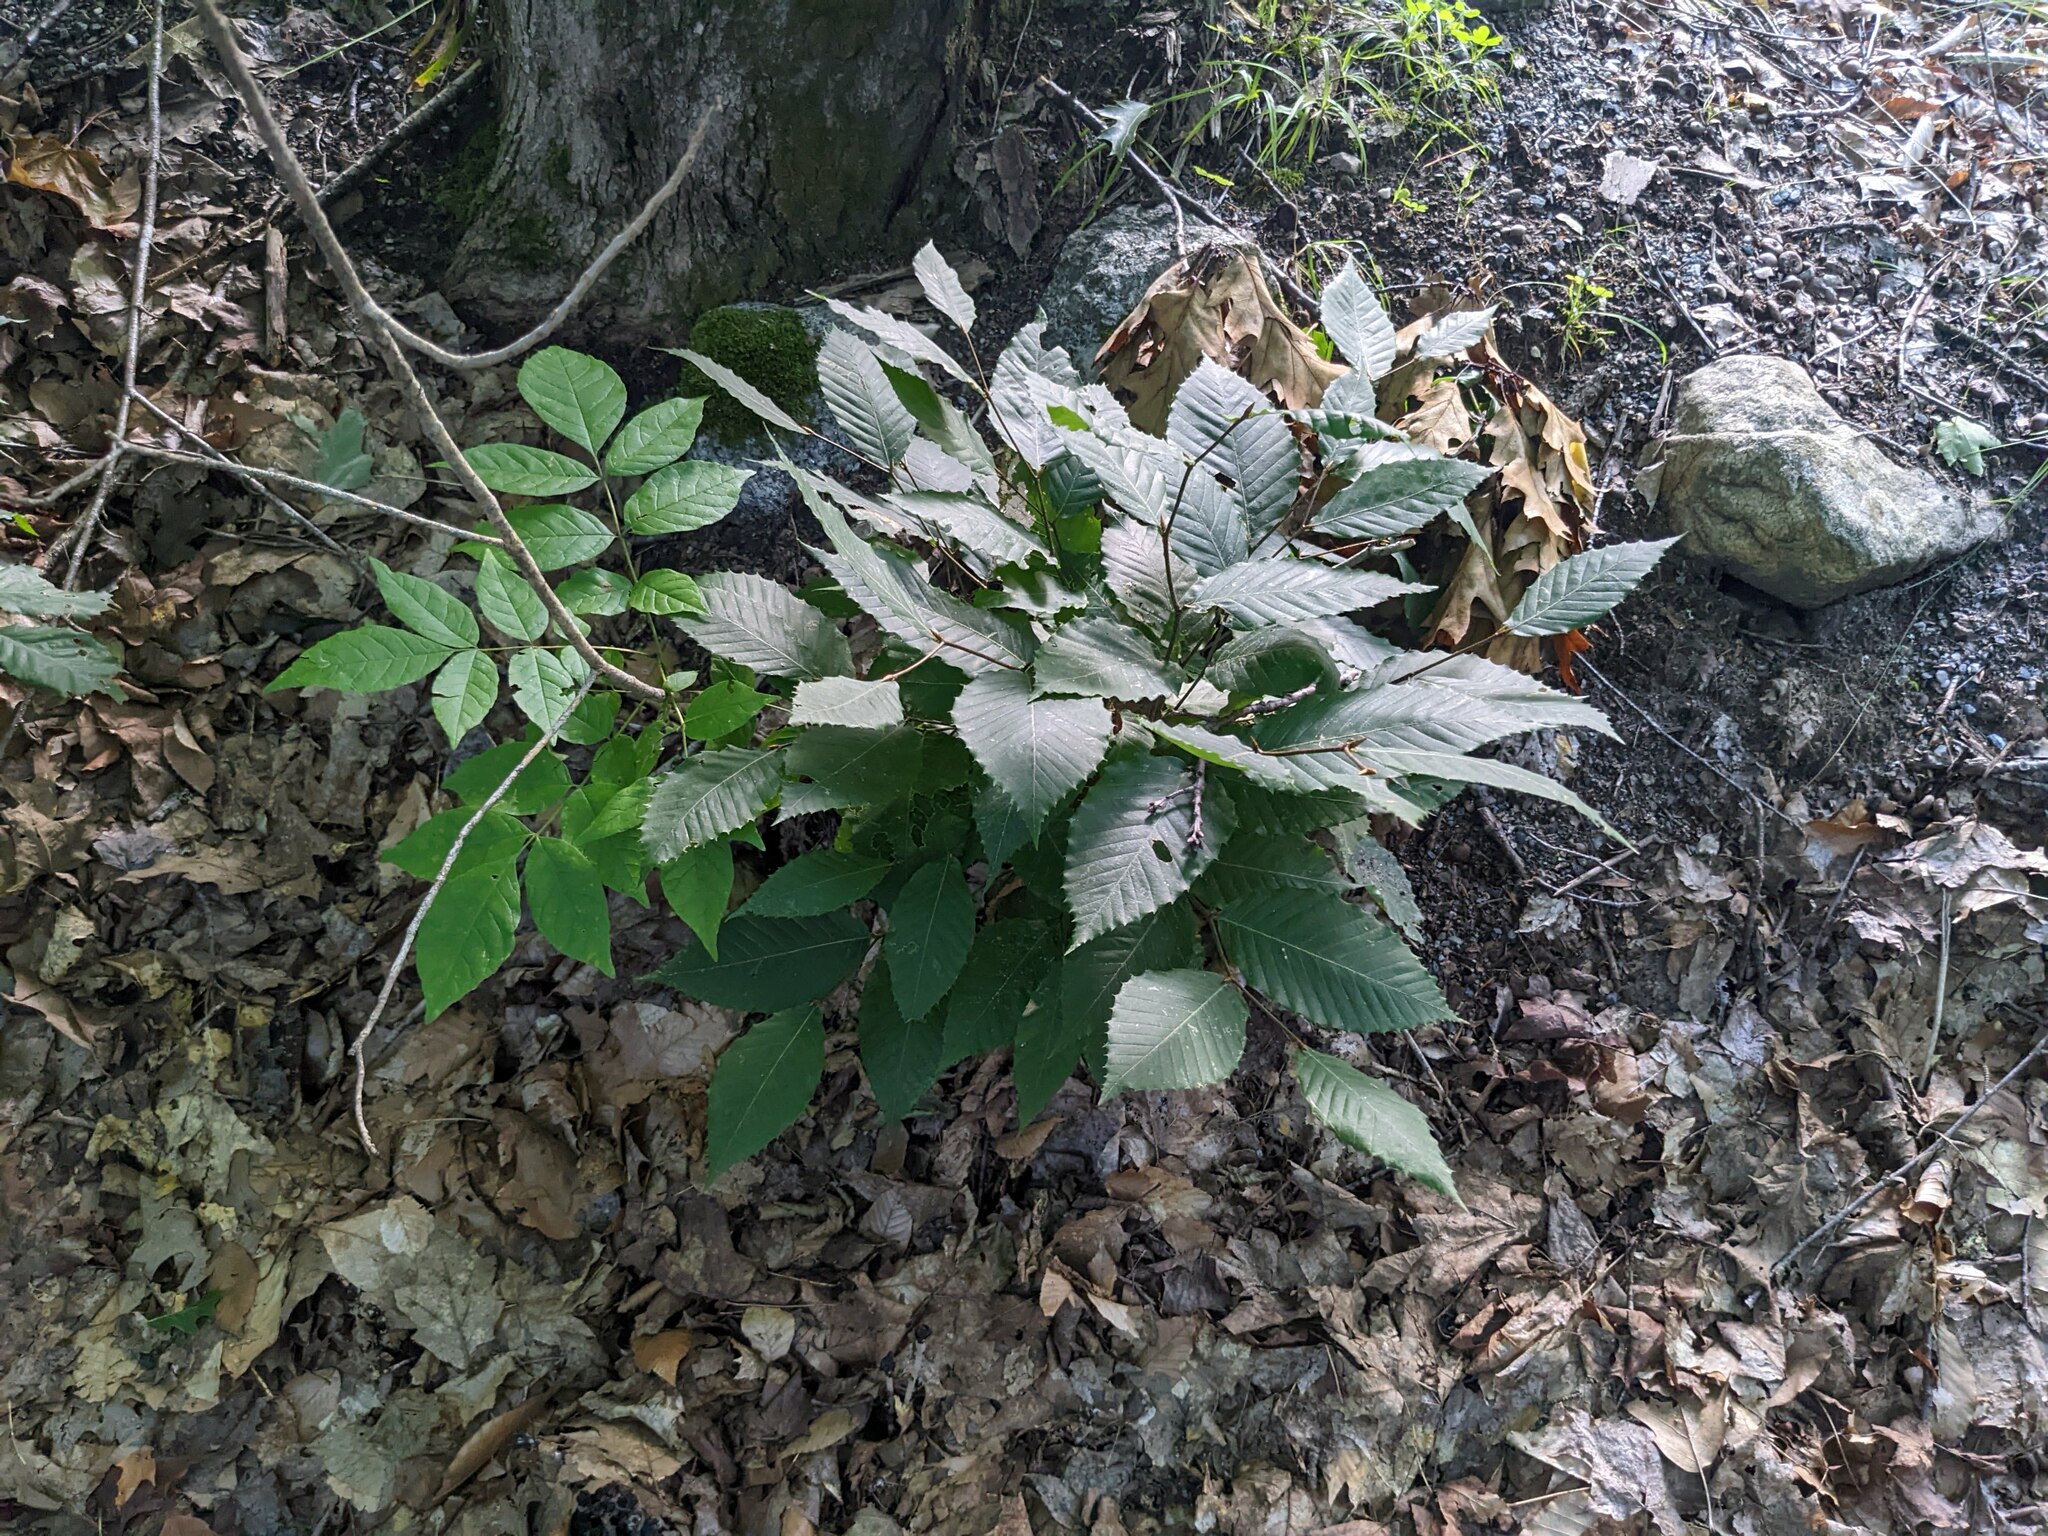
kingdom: Plantae
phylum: Tracheophyta
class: Magnoliopsida
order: Fagales
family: Fagaceae
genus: Fagus
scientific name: Fagus grandifolia
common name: American beech
